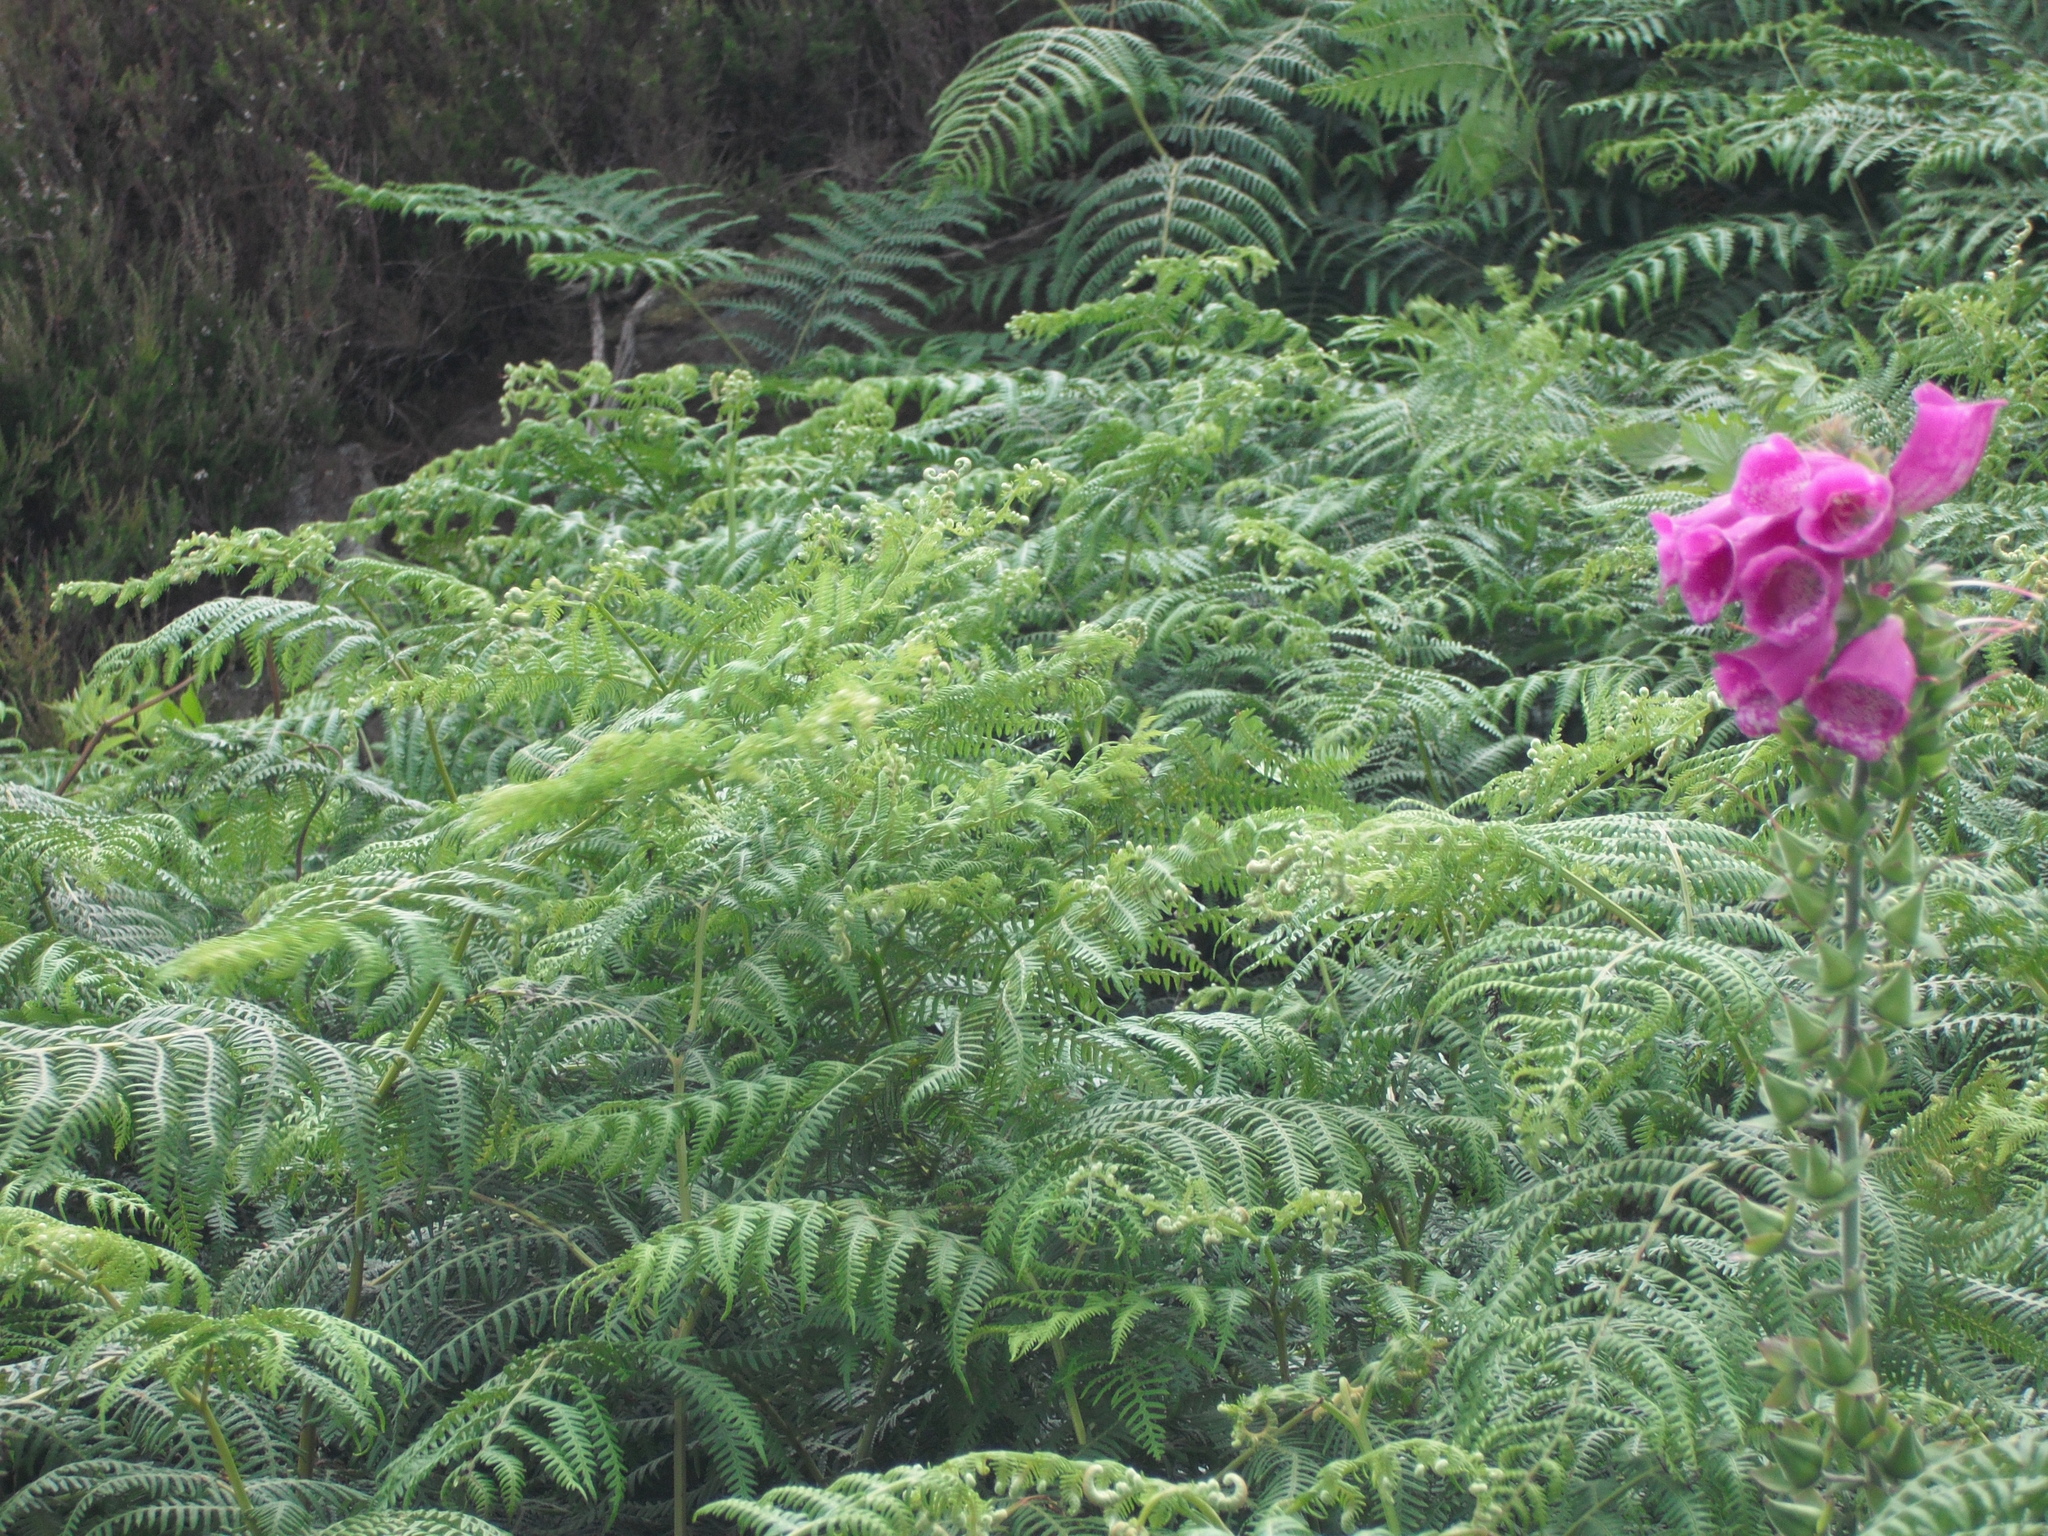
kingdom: Plantae
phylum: Tracheophyta
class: Magnoliopsida
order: Lamiales
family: Plantaginaceae
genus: Digitalis
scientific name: Digitalis purpurea
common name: Foxglove
